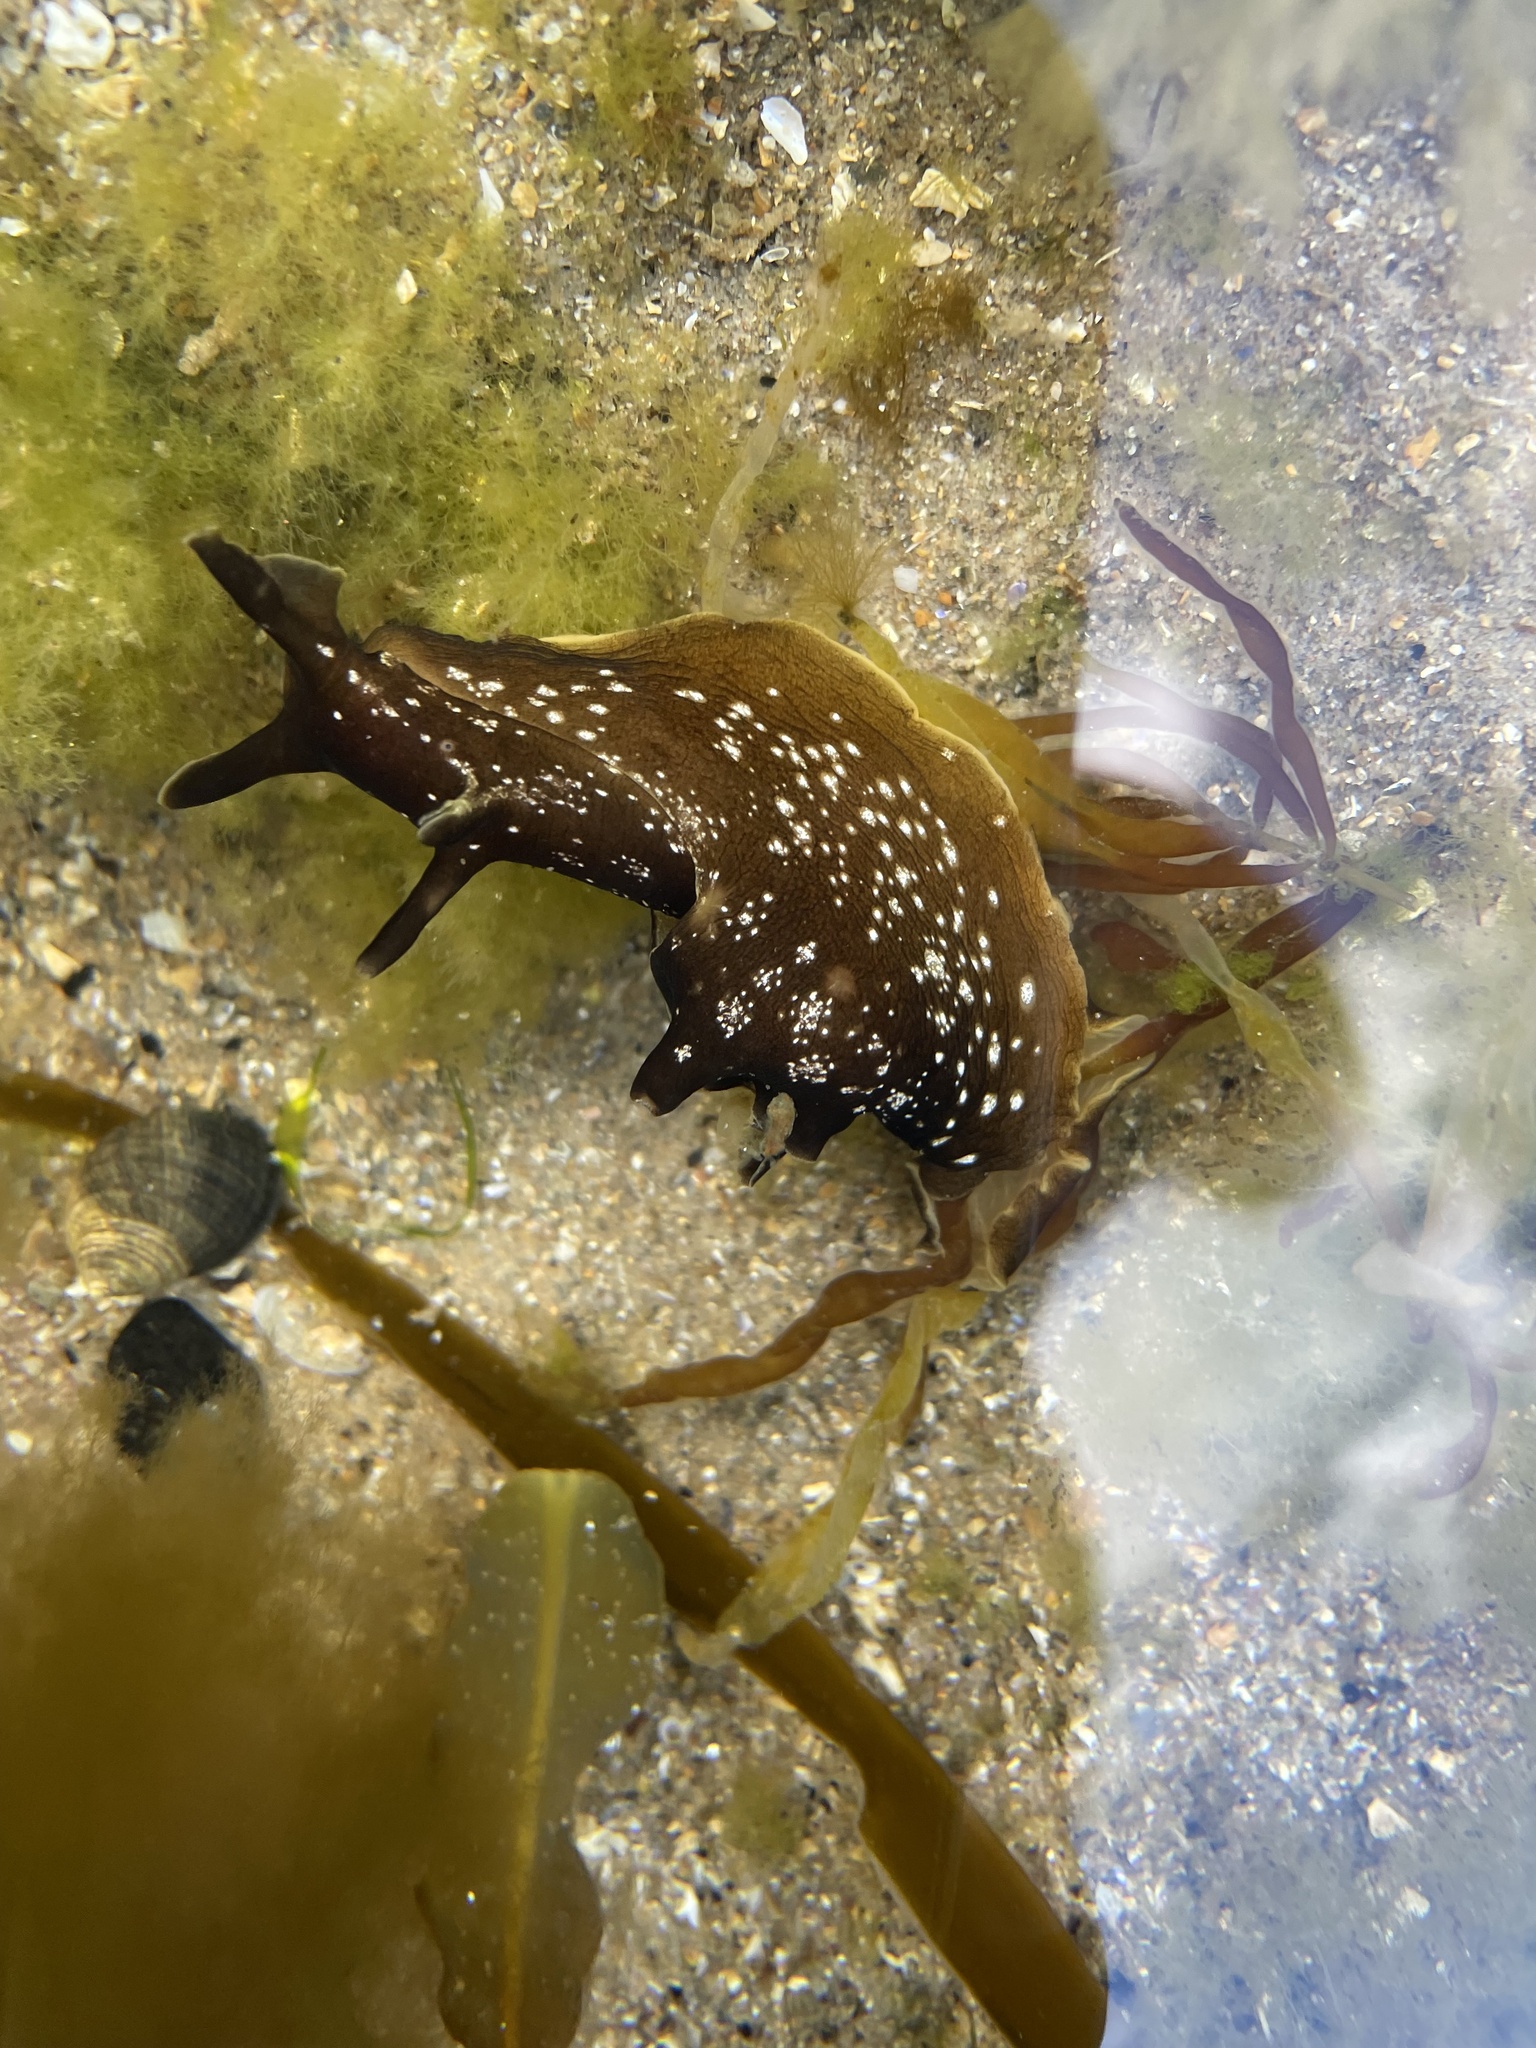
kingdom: Animalia
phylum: Mollusca
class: Gastropoda
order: Aplysiida
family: Aplysiidae
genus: Aplysia
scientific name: Aplysia punctata
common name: Common sea hare
